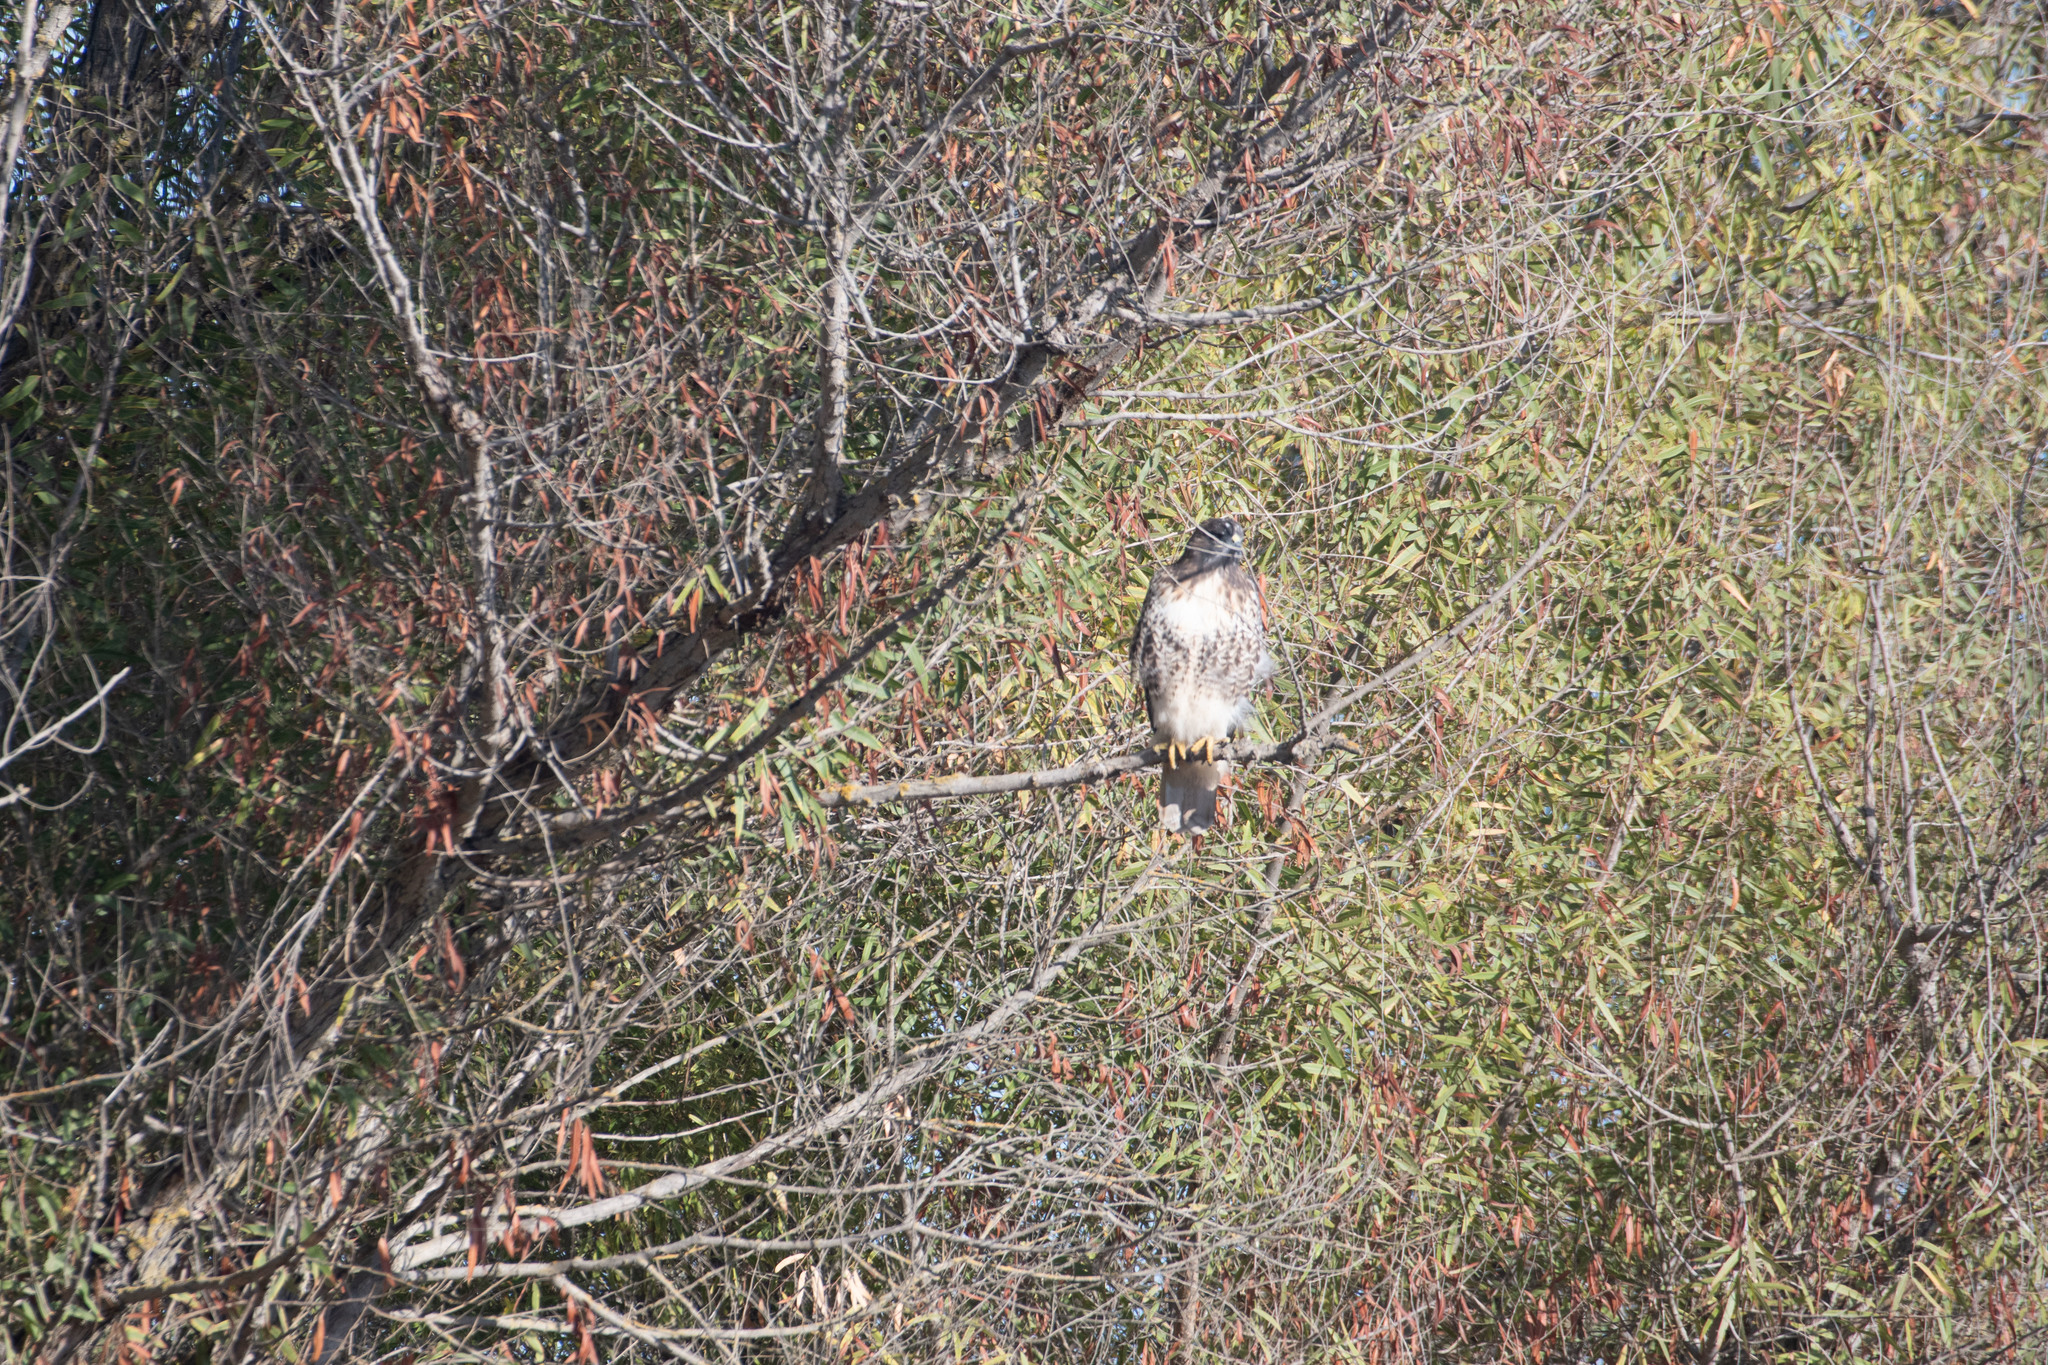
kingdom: Animalia
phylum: Chordata
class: Aves
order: Accipitriformes
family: Accipitridae
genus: Buteo
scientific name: Buteo jamaicensis
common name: Red-tailed hawk
